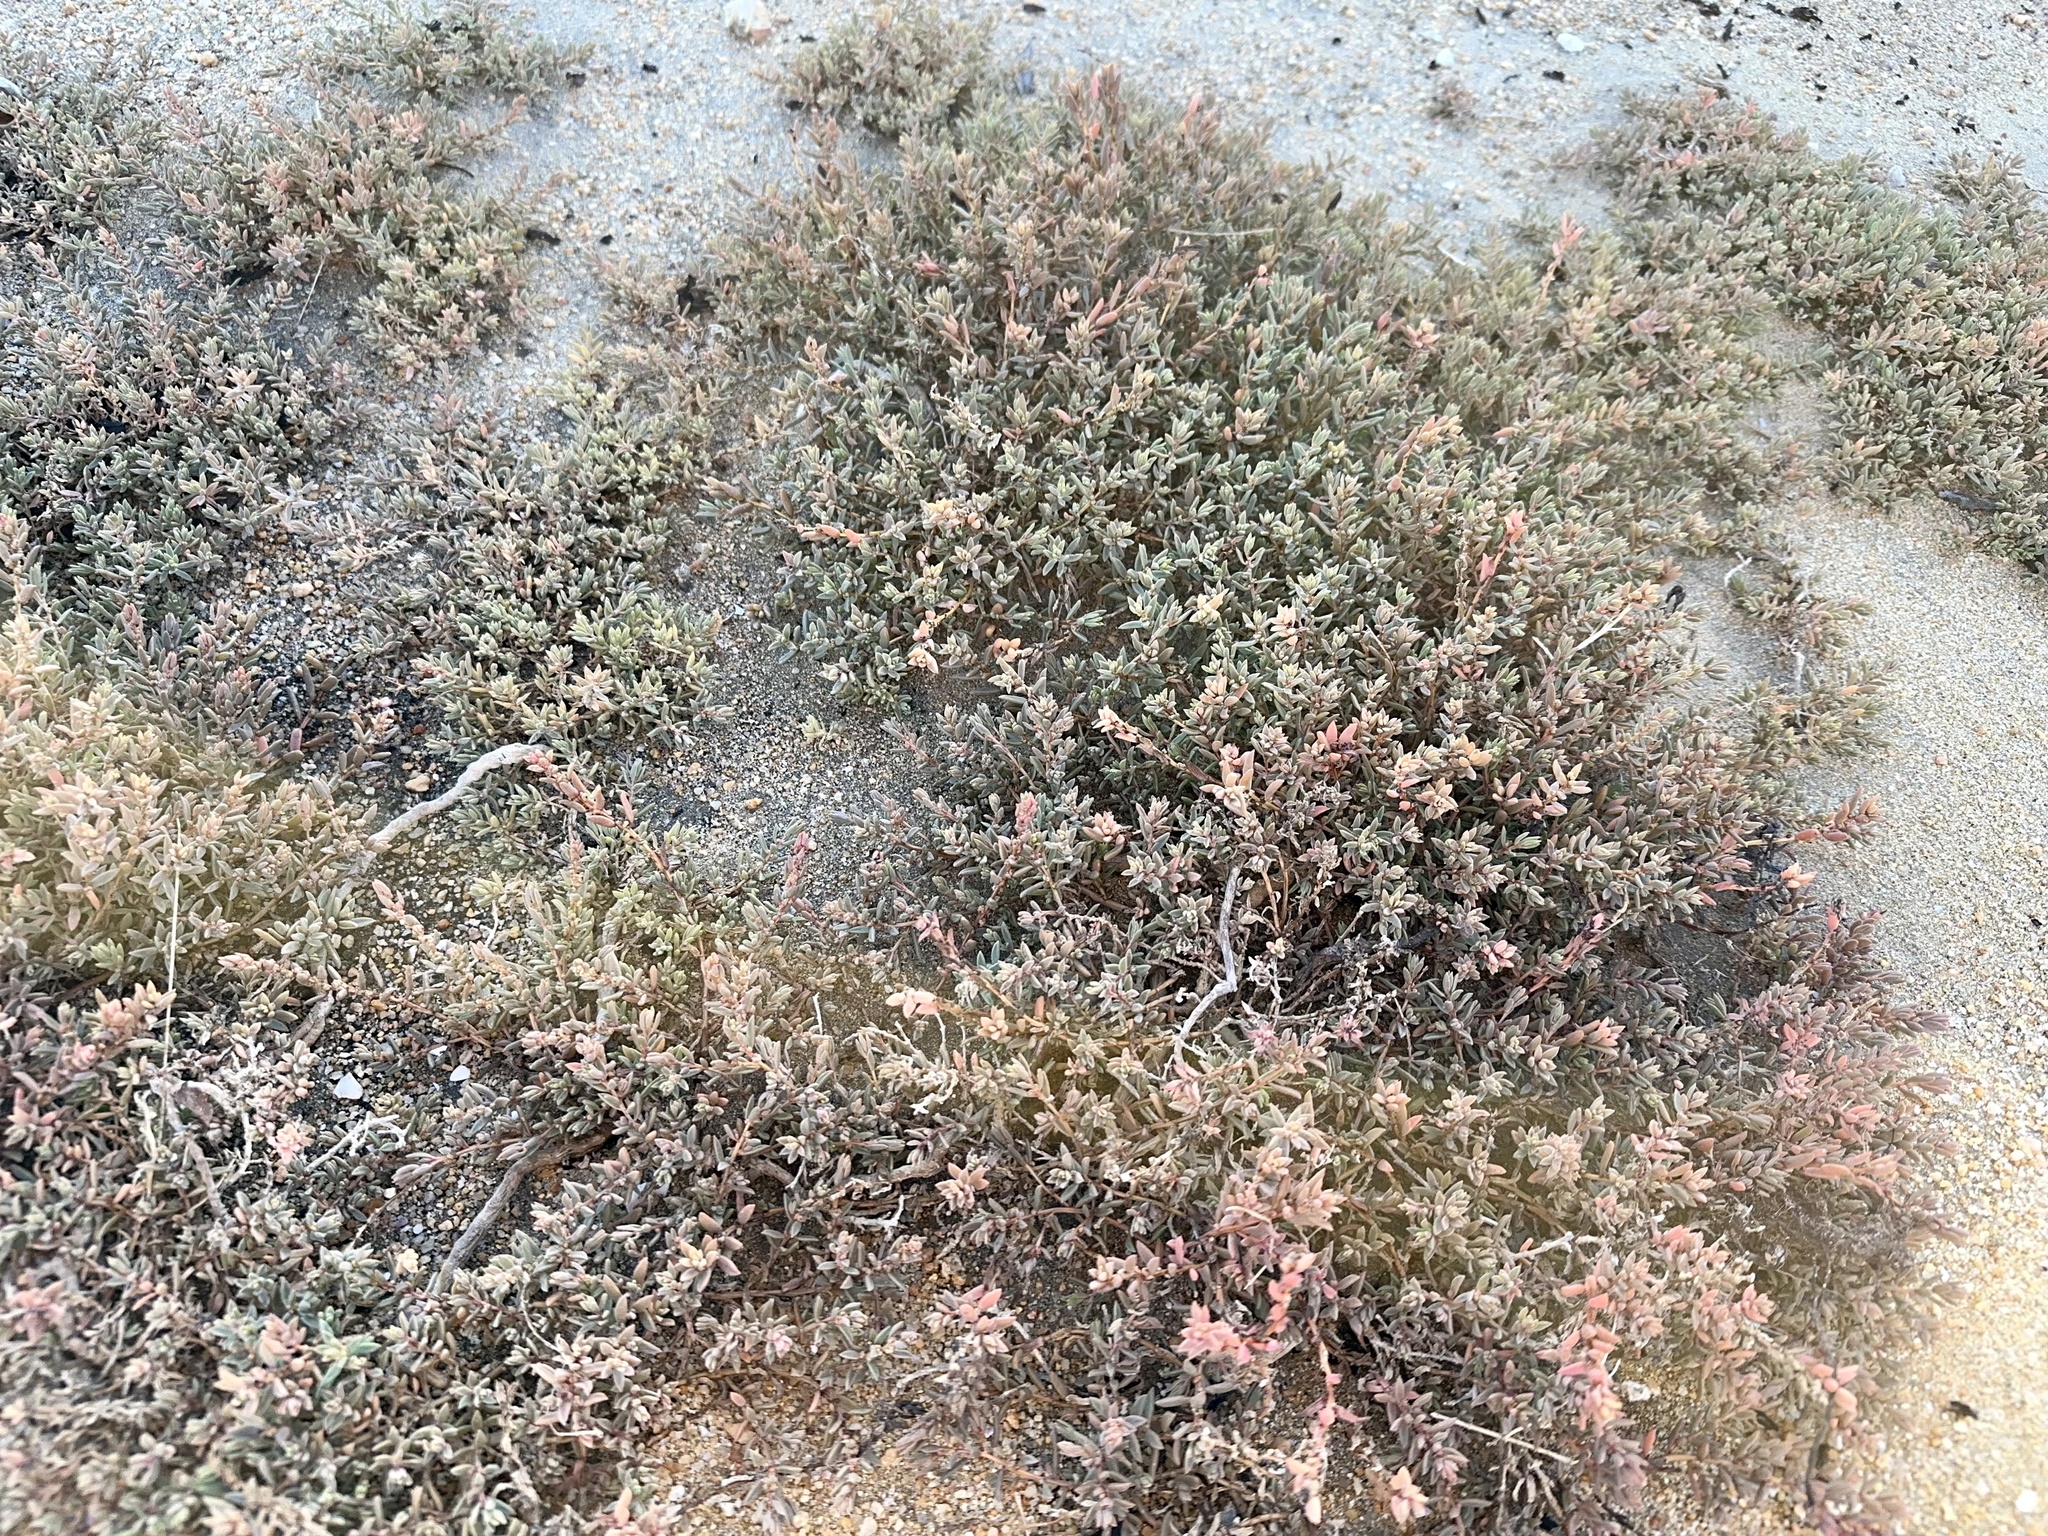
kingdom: Plantae
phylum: Tracheophyta
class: Magnoliopsida
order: Caryophyllales
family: Amaranthaceae
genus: Suaeda
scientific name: Suaeda novae-zelandiae
